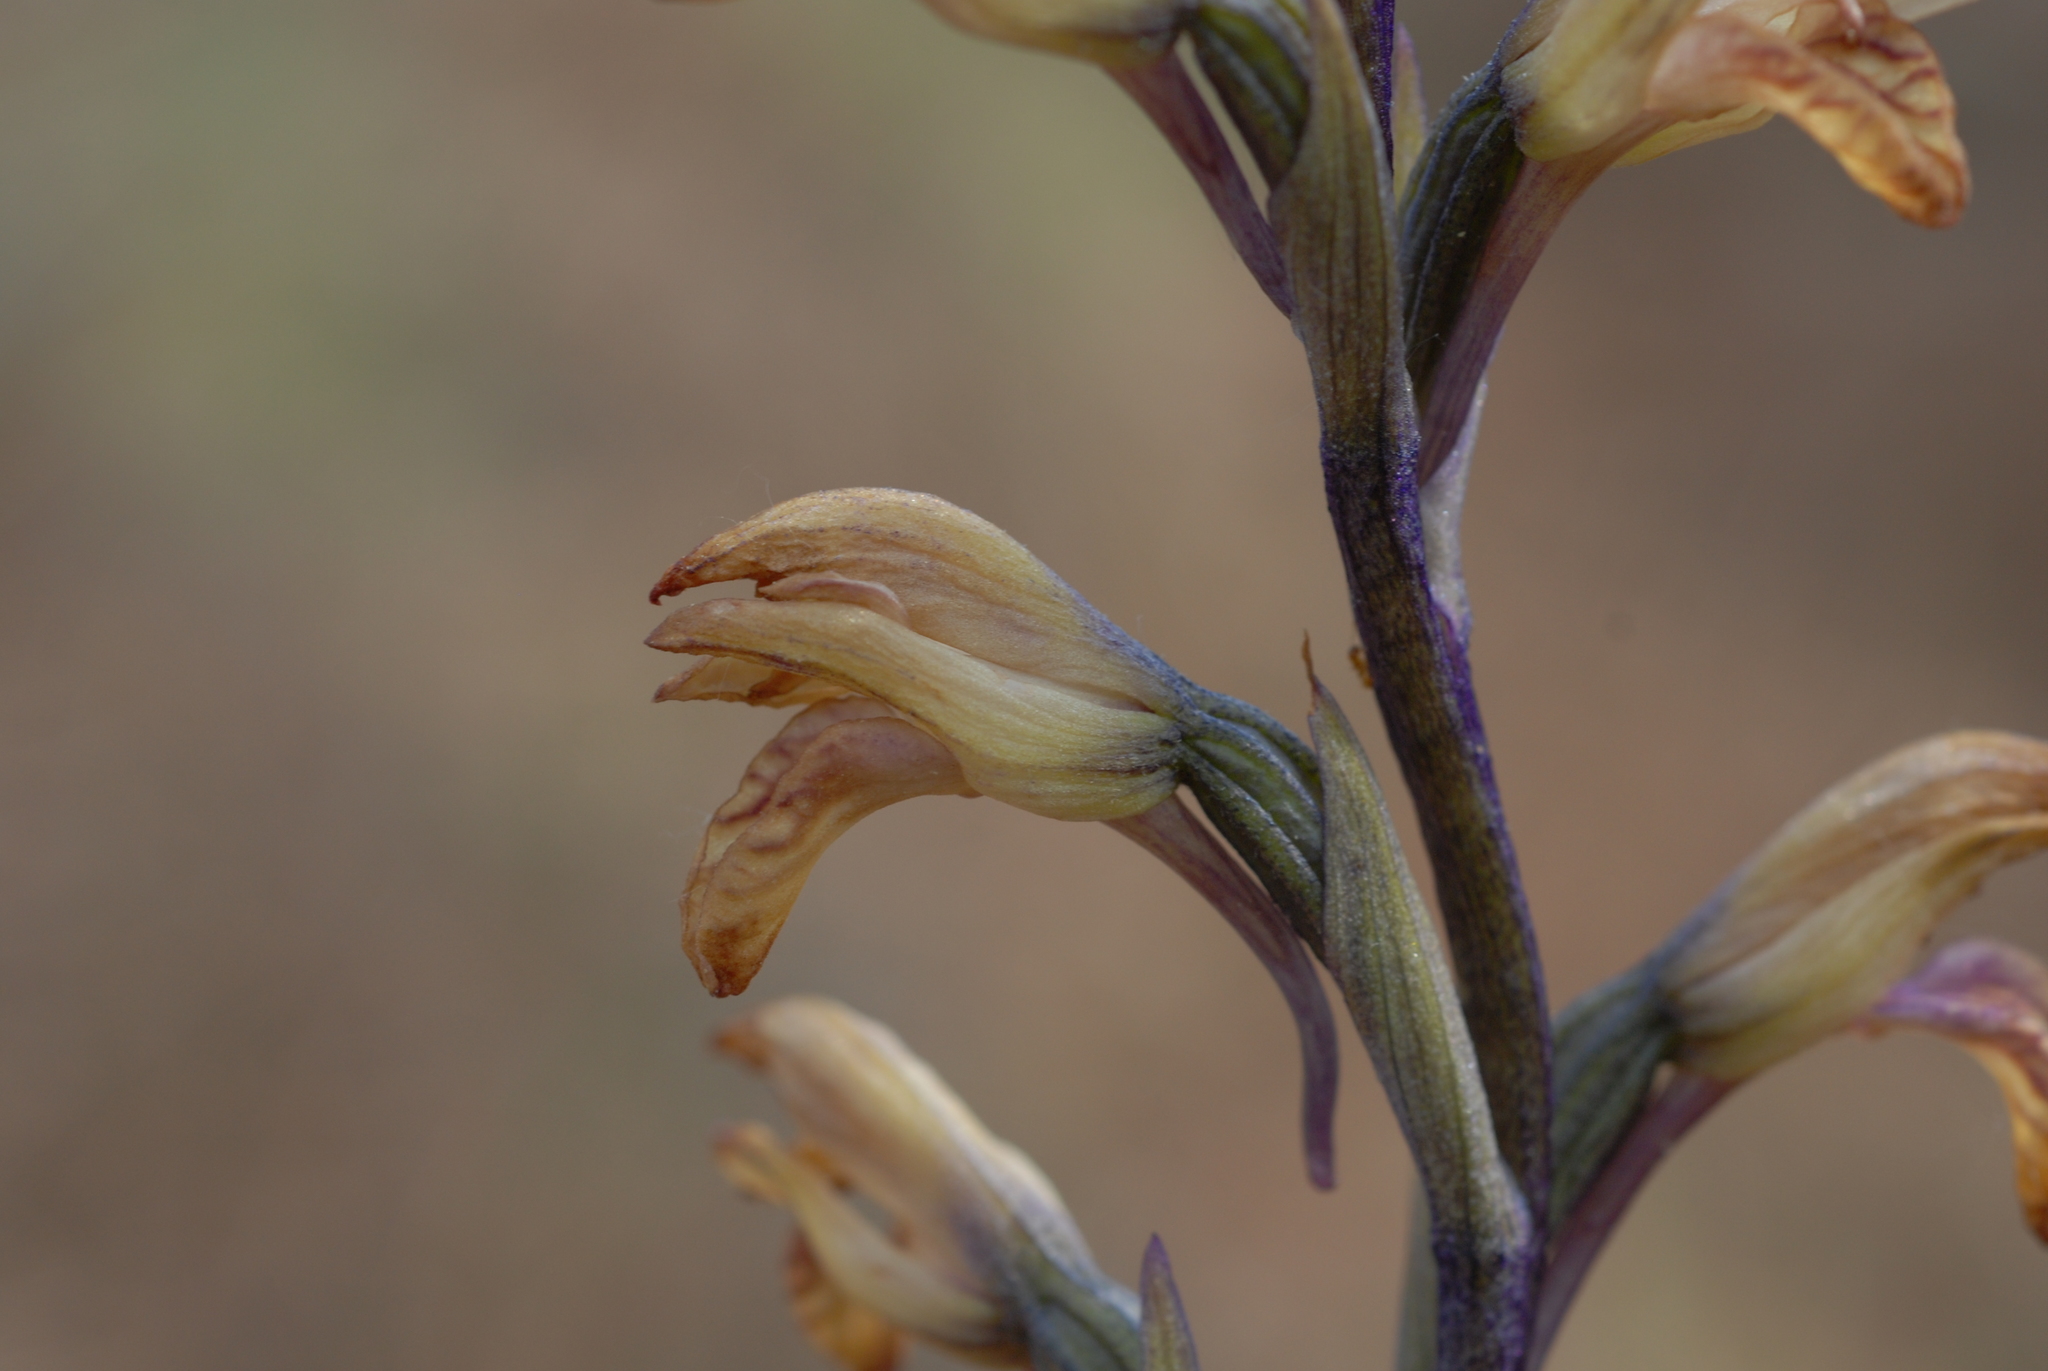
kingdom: Plantae
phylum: Tracheophyta
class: Liliopsida
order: Asparagales
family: Orchidaceae
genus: Limodorum
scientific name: Limodorum abortivum
